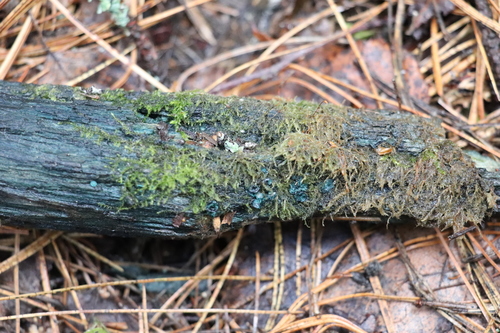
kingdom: Fungi
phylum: Ascomycota
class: Leotiomycetes
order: Helotiales
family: Chlorociboriaceae
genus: Chlorociboria
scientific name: Chlorociboria aeruginosa
